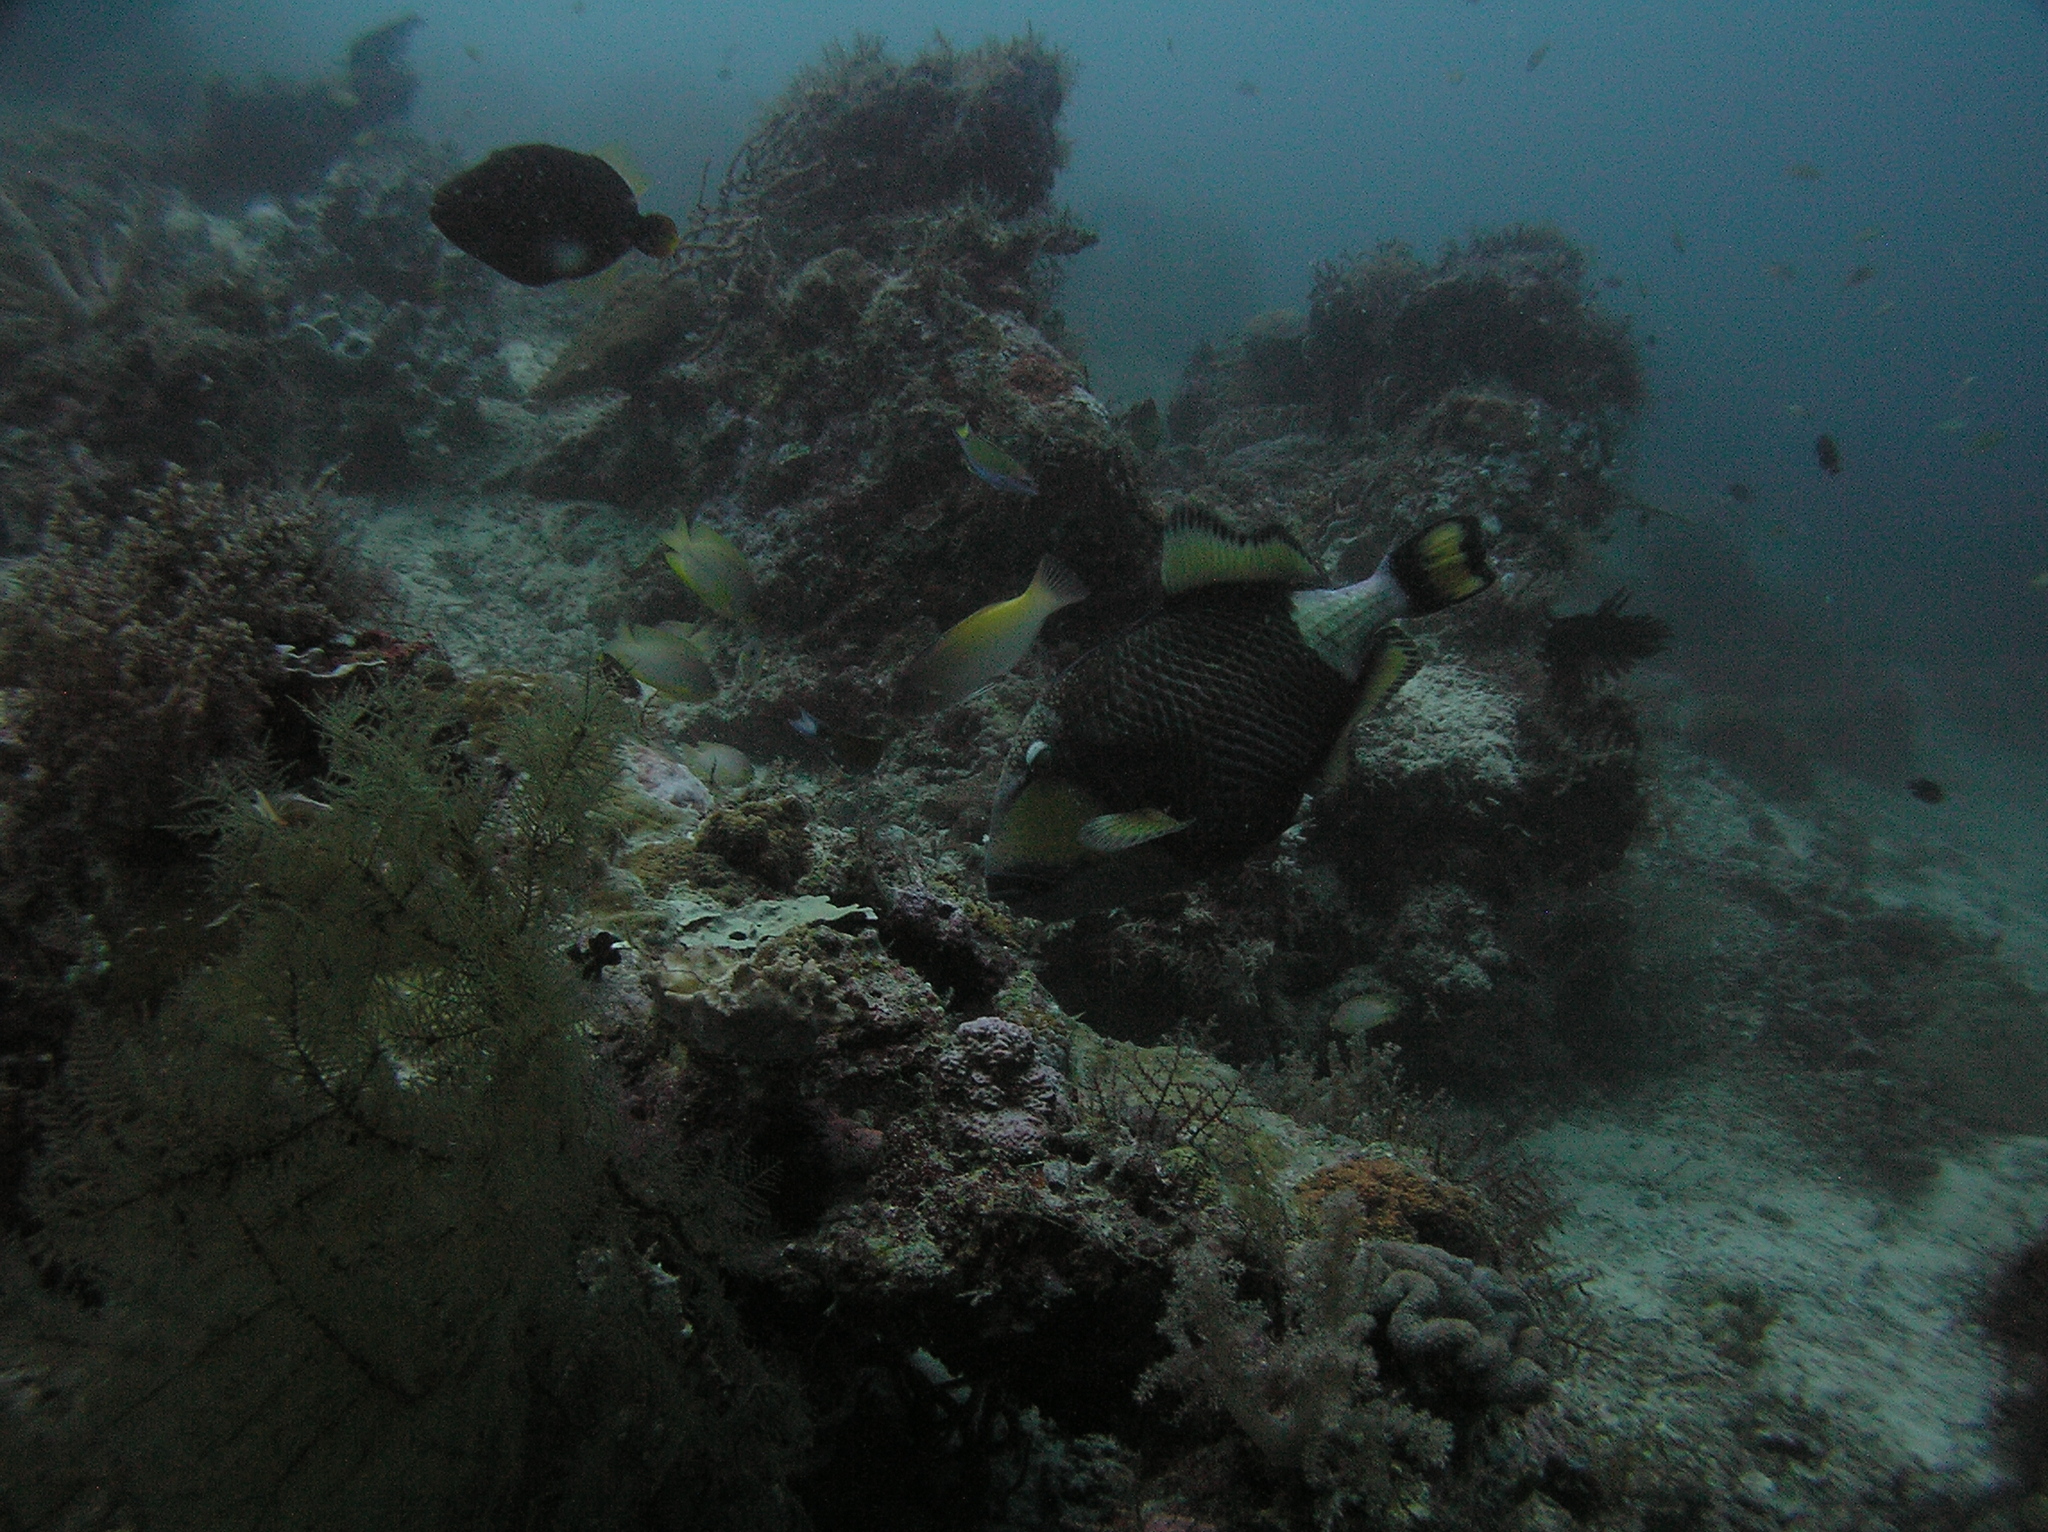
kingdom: Animalia
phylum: Chordata
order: Tetraodontiformes
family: Balistidae
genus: Balistoides
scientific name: Balistoides viridescens
